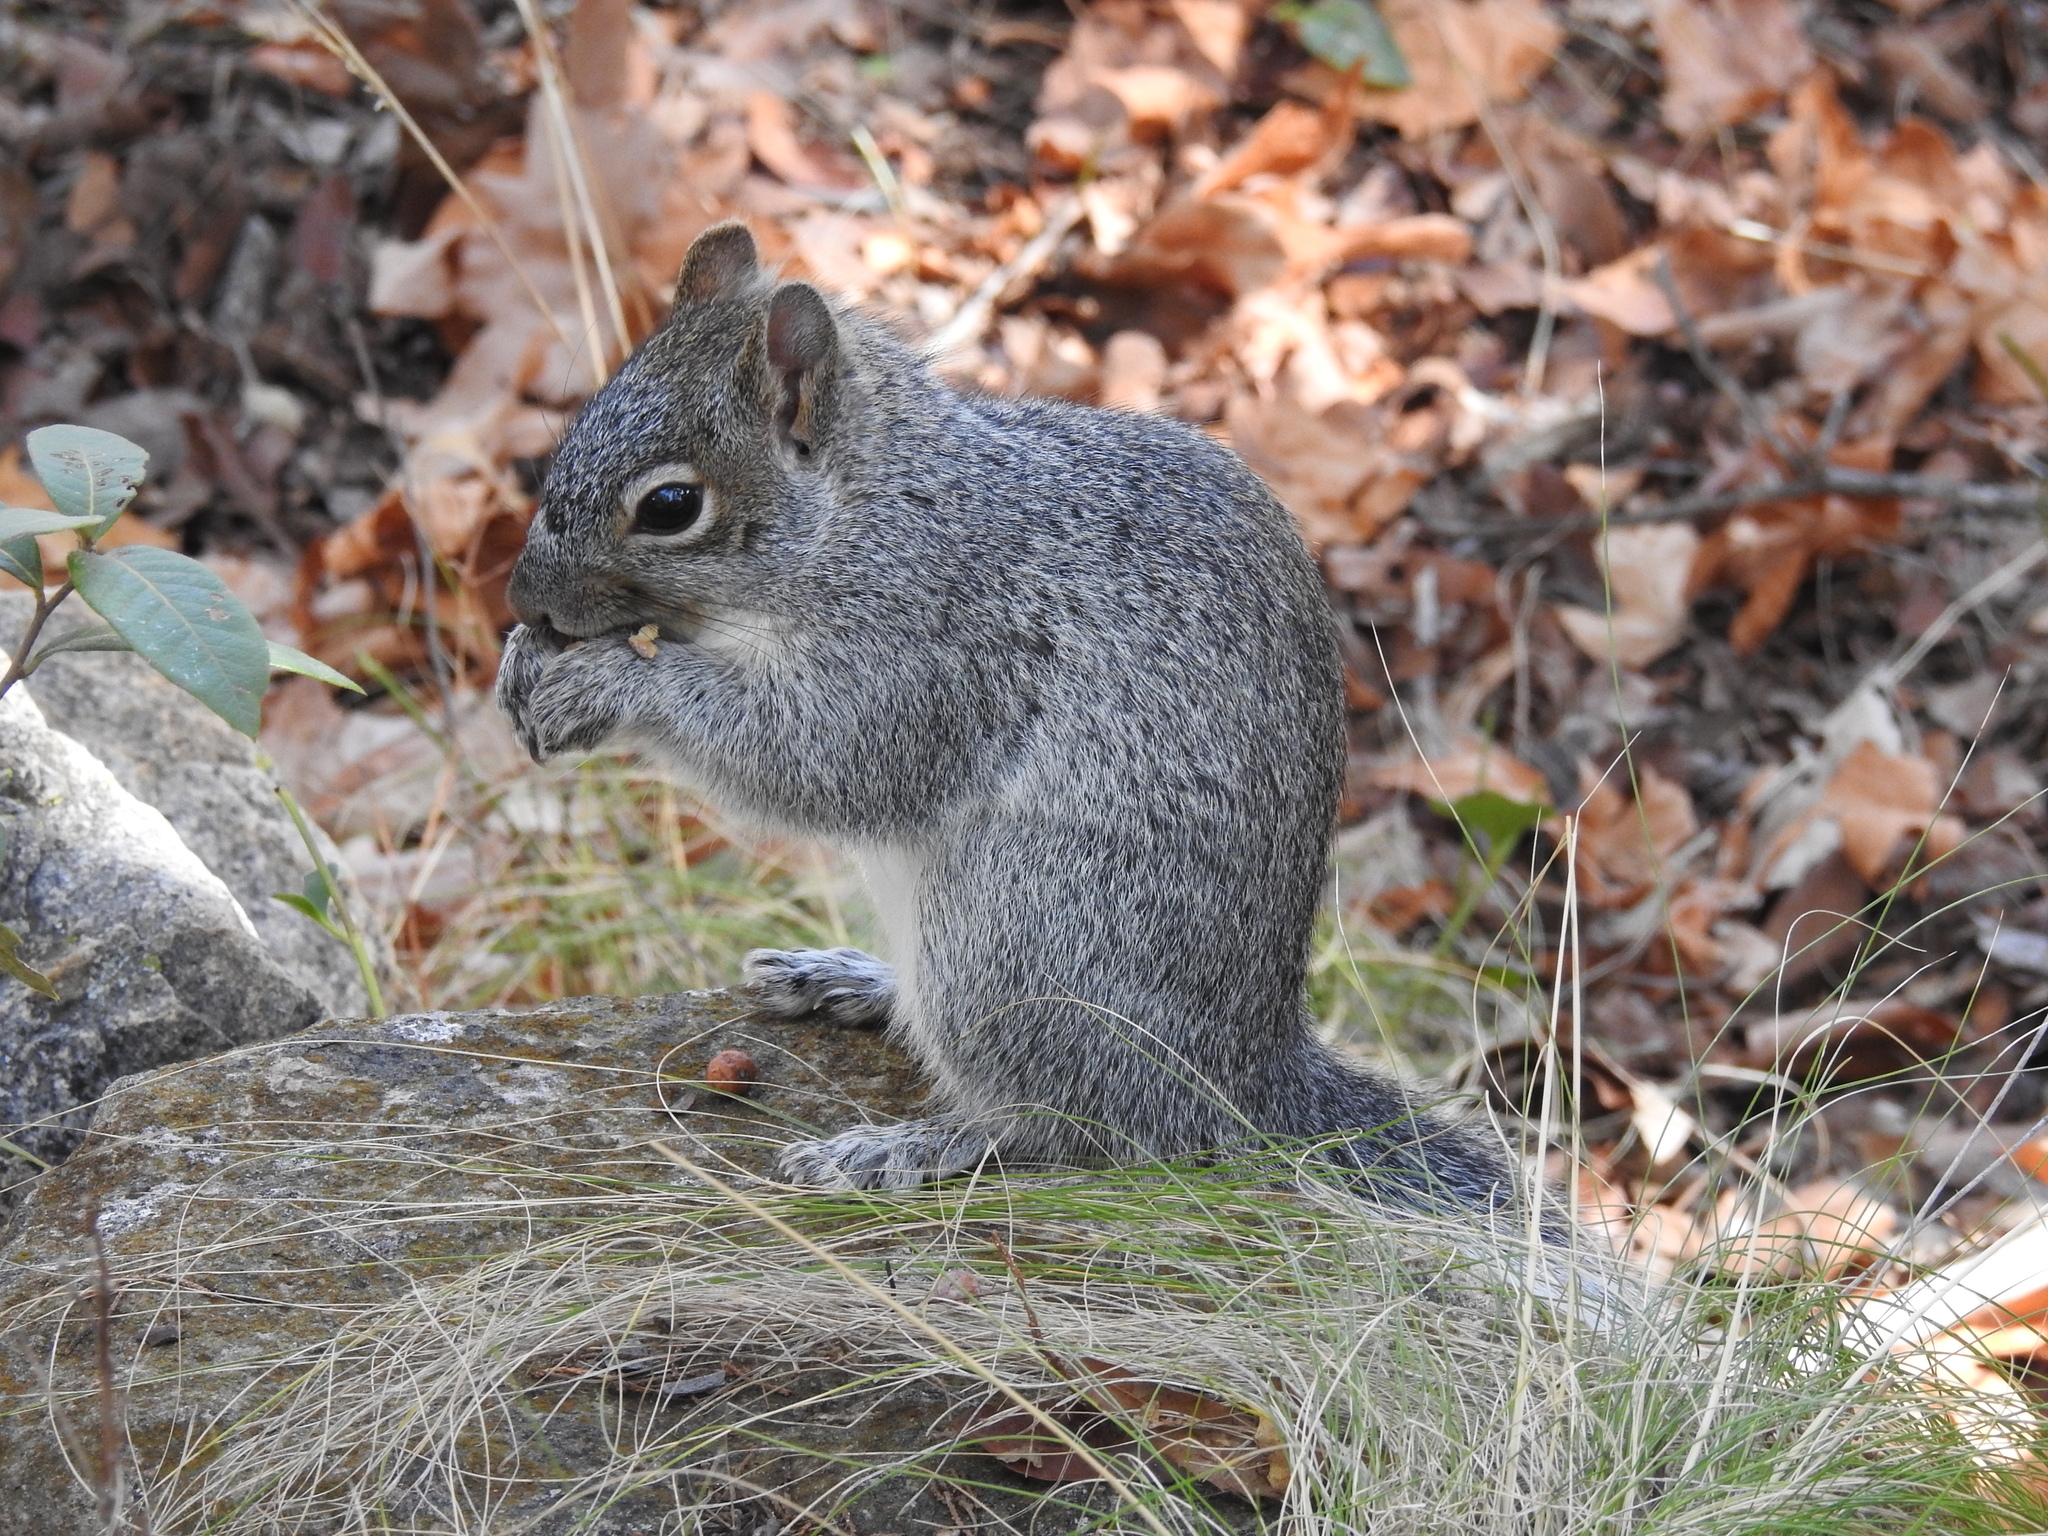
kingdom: Animalia
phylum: Chordata
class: Mammalia
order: Rodentia
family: Sciuridae
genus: Sciurus
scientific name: Sciurus arizonensis
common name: Arizona gray squirrel
